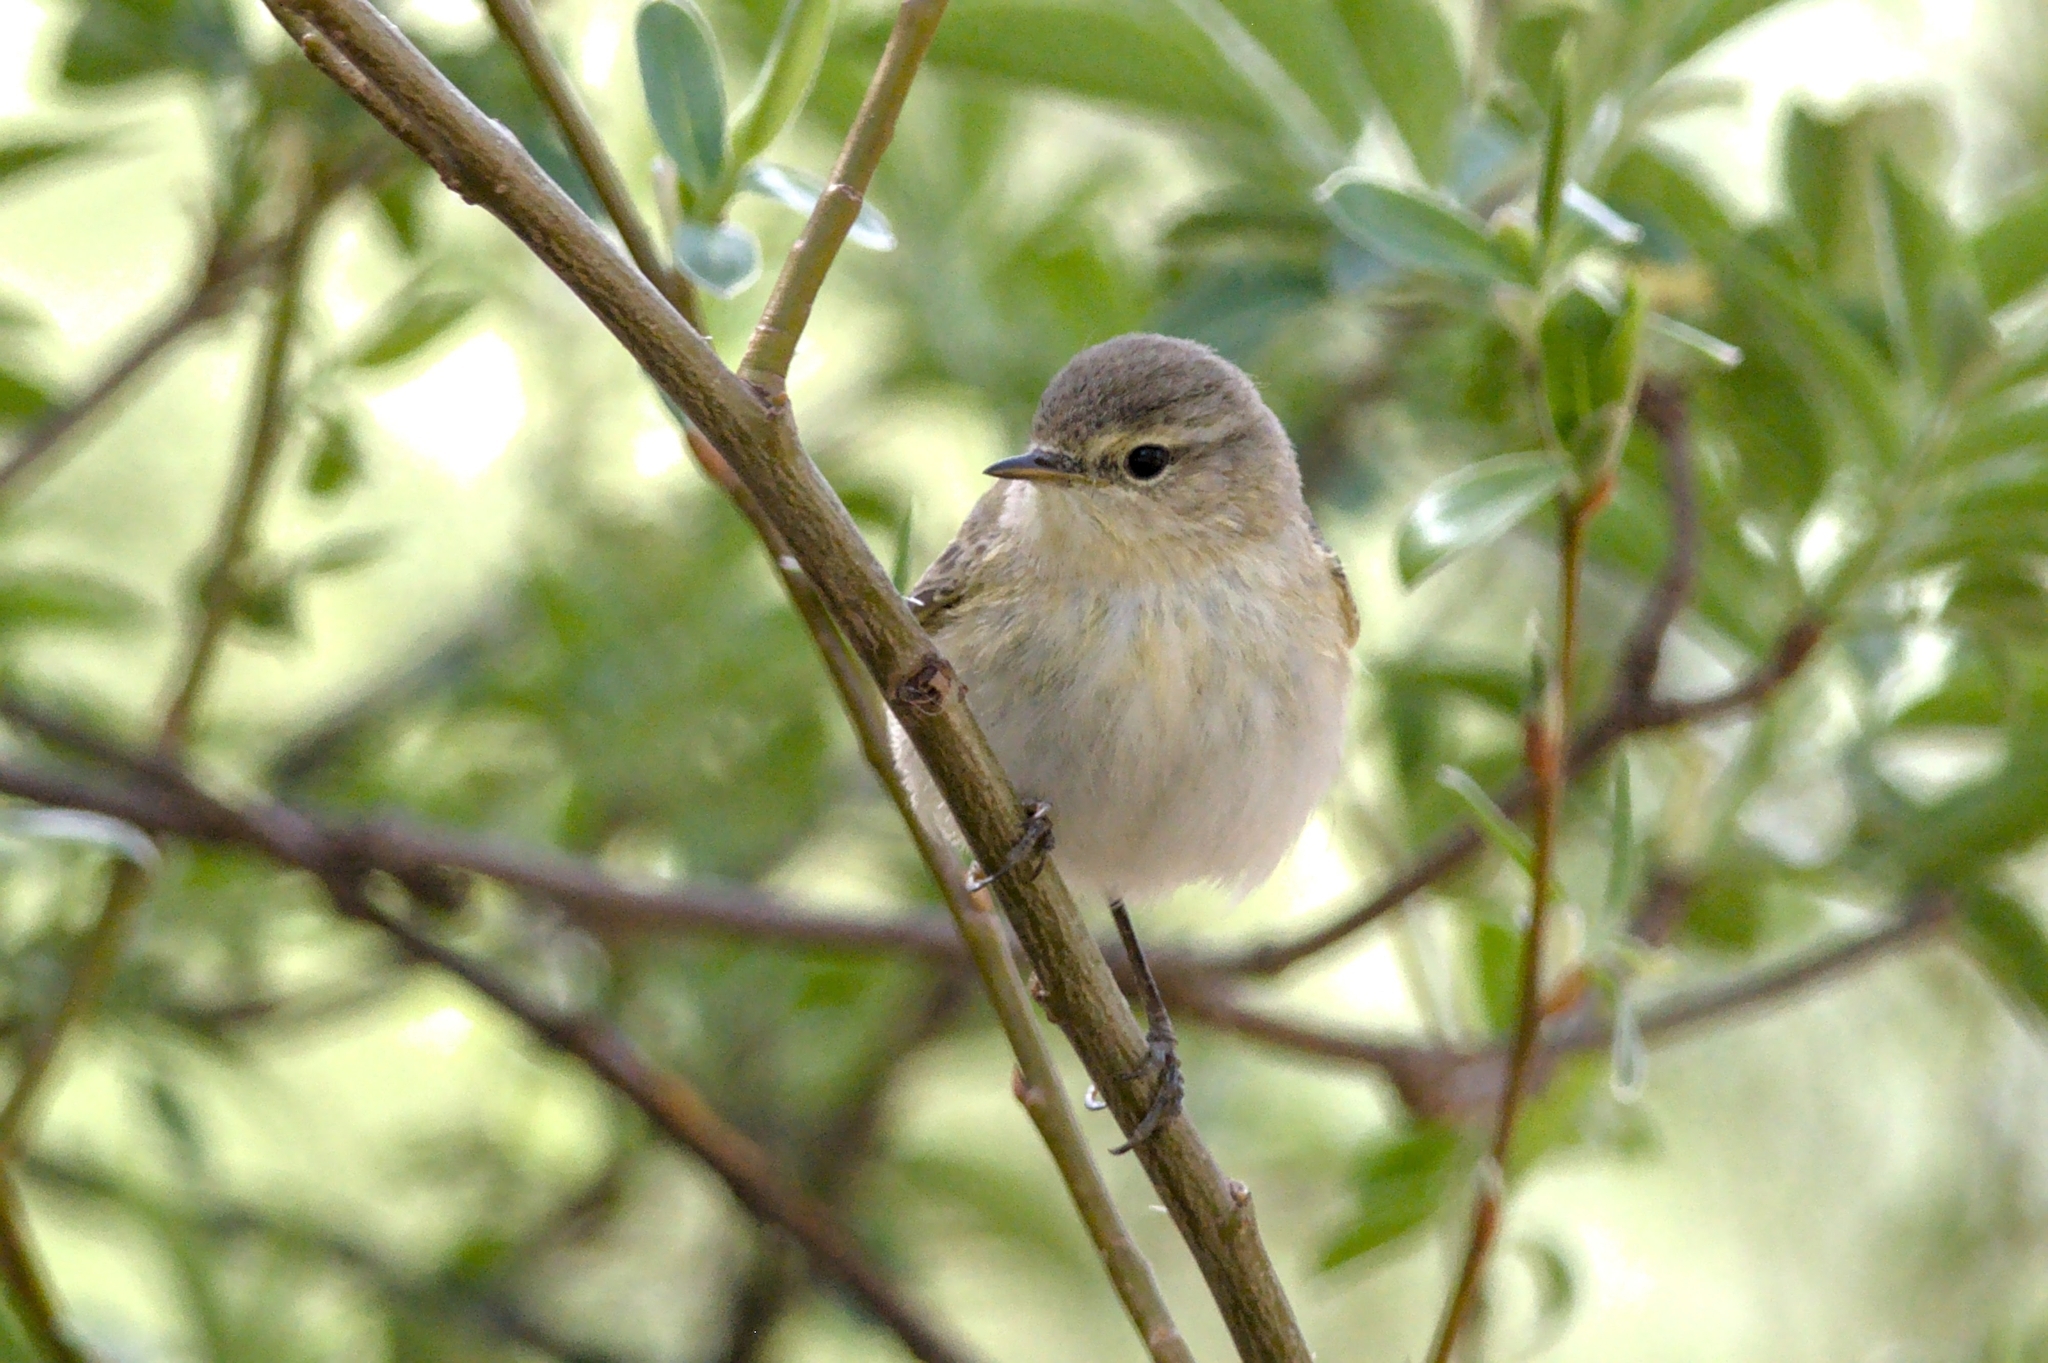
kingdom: Animalia
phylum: Chordata
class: Aves
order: Passeriformes
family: Phylloscopidae
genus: Phylloscopus
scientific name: Phylloscopus collybita
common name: Common chiffchaff
